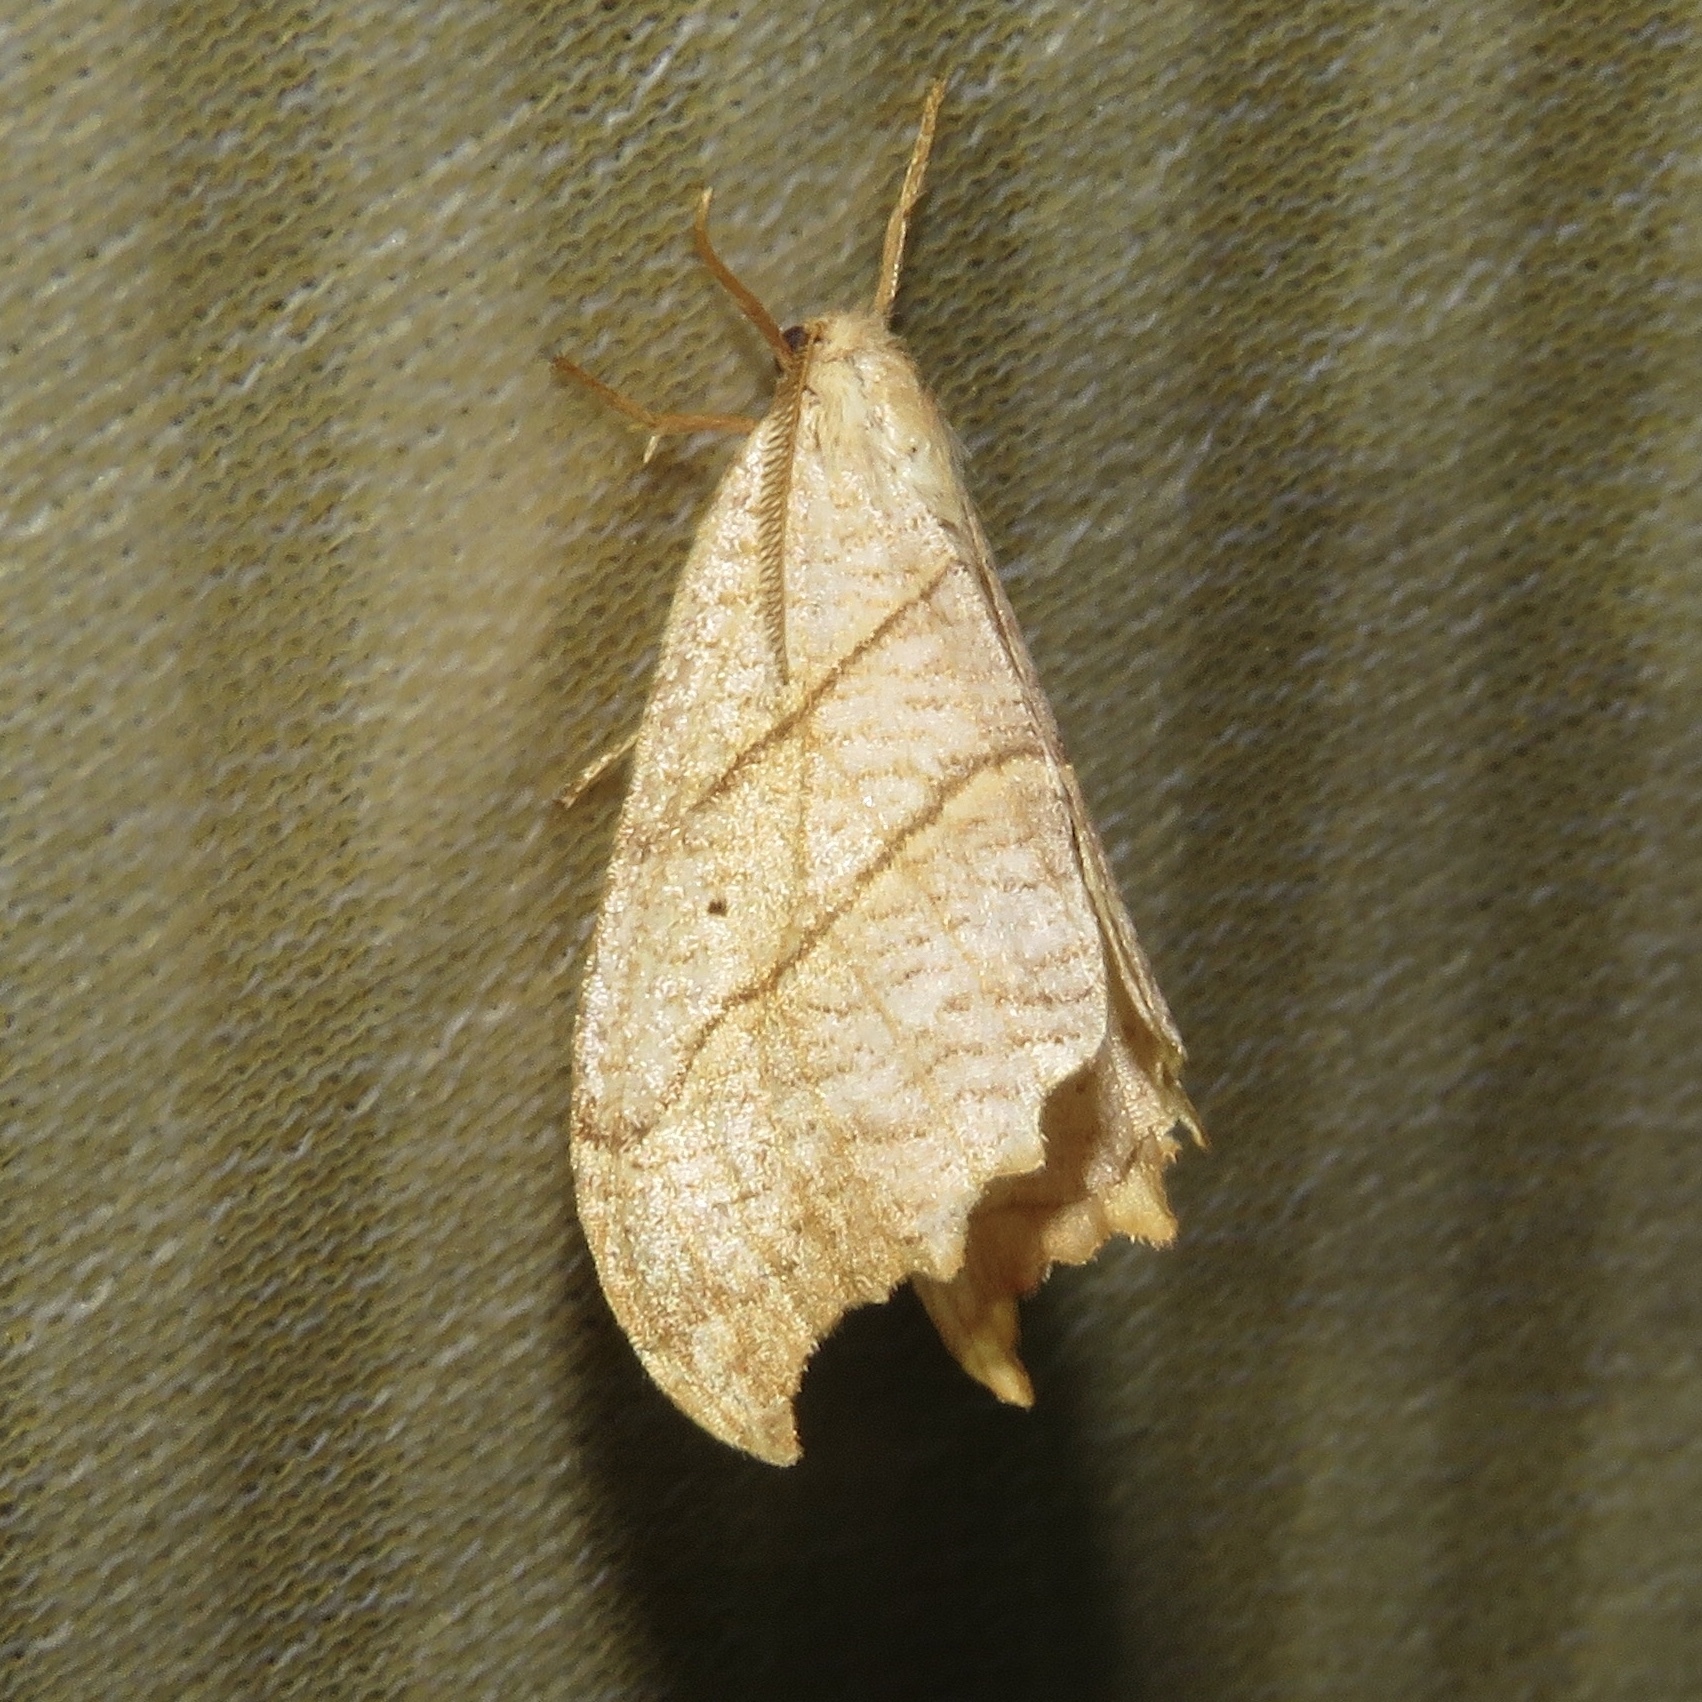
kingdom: Animalia
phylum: Arthropoda
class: Insecta
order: Lepidoptera
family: Drepanidae
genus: Falcaria
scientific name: Falcaria bilineata
